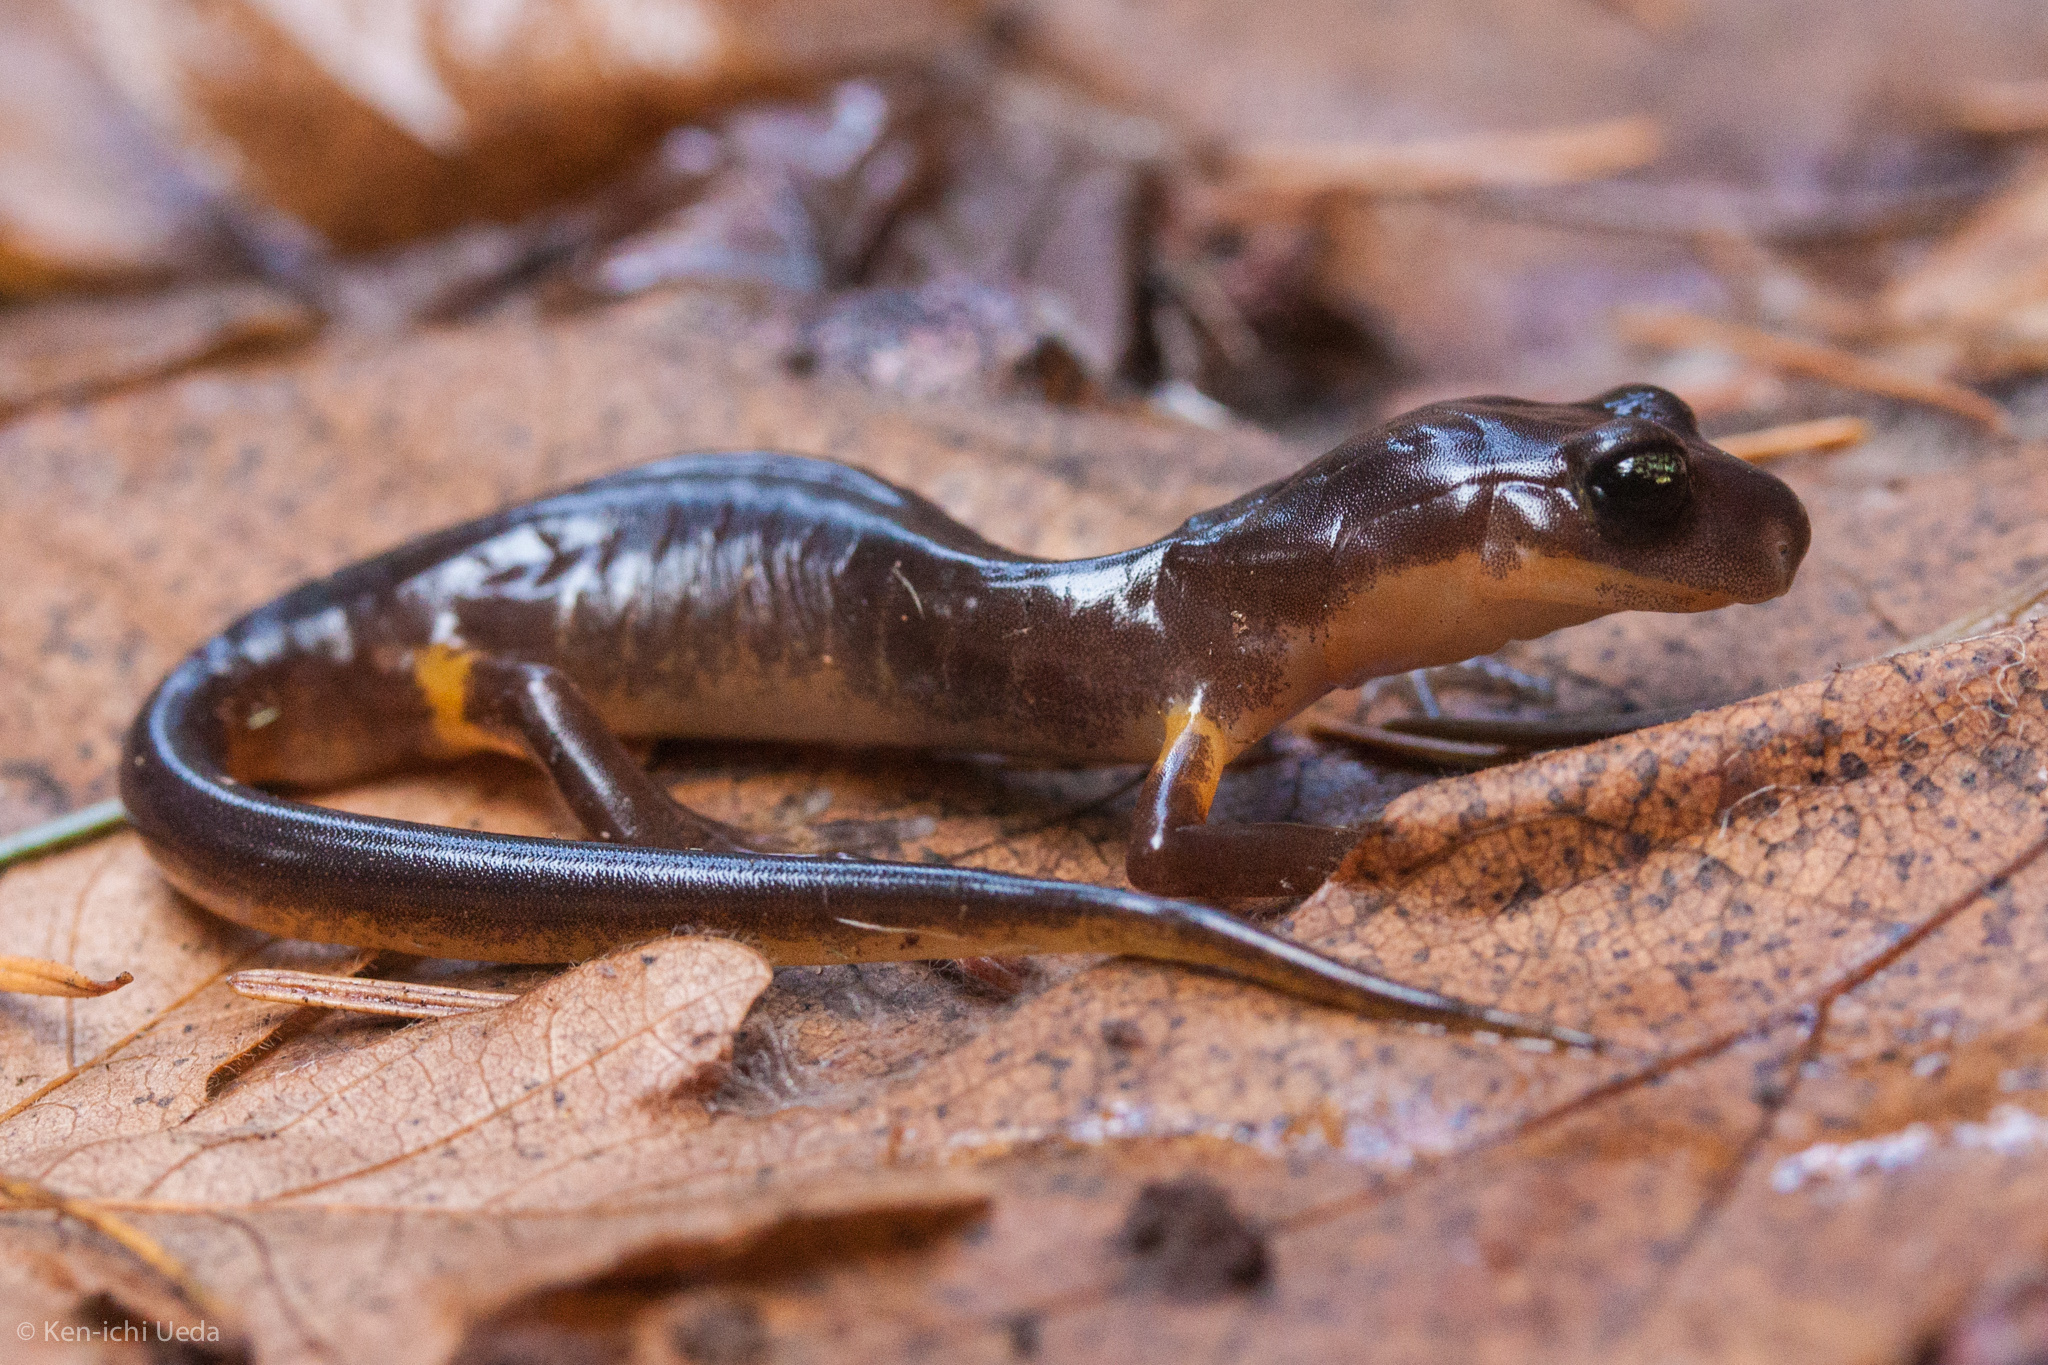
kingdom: Animalia
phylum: Chordata
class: Amphibia
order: Caudata
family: Plethodontidae
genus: Ensatina
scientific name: Ensatina eschscholtzii
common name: Ensatina
